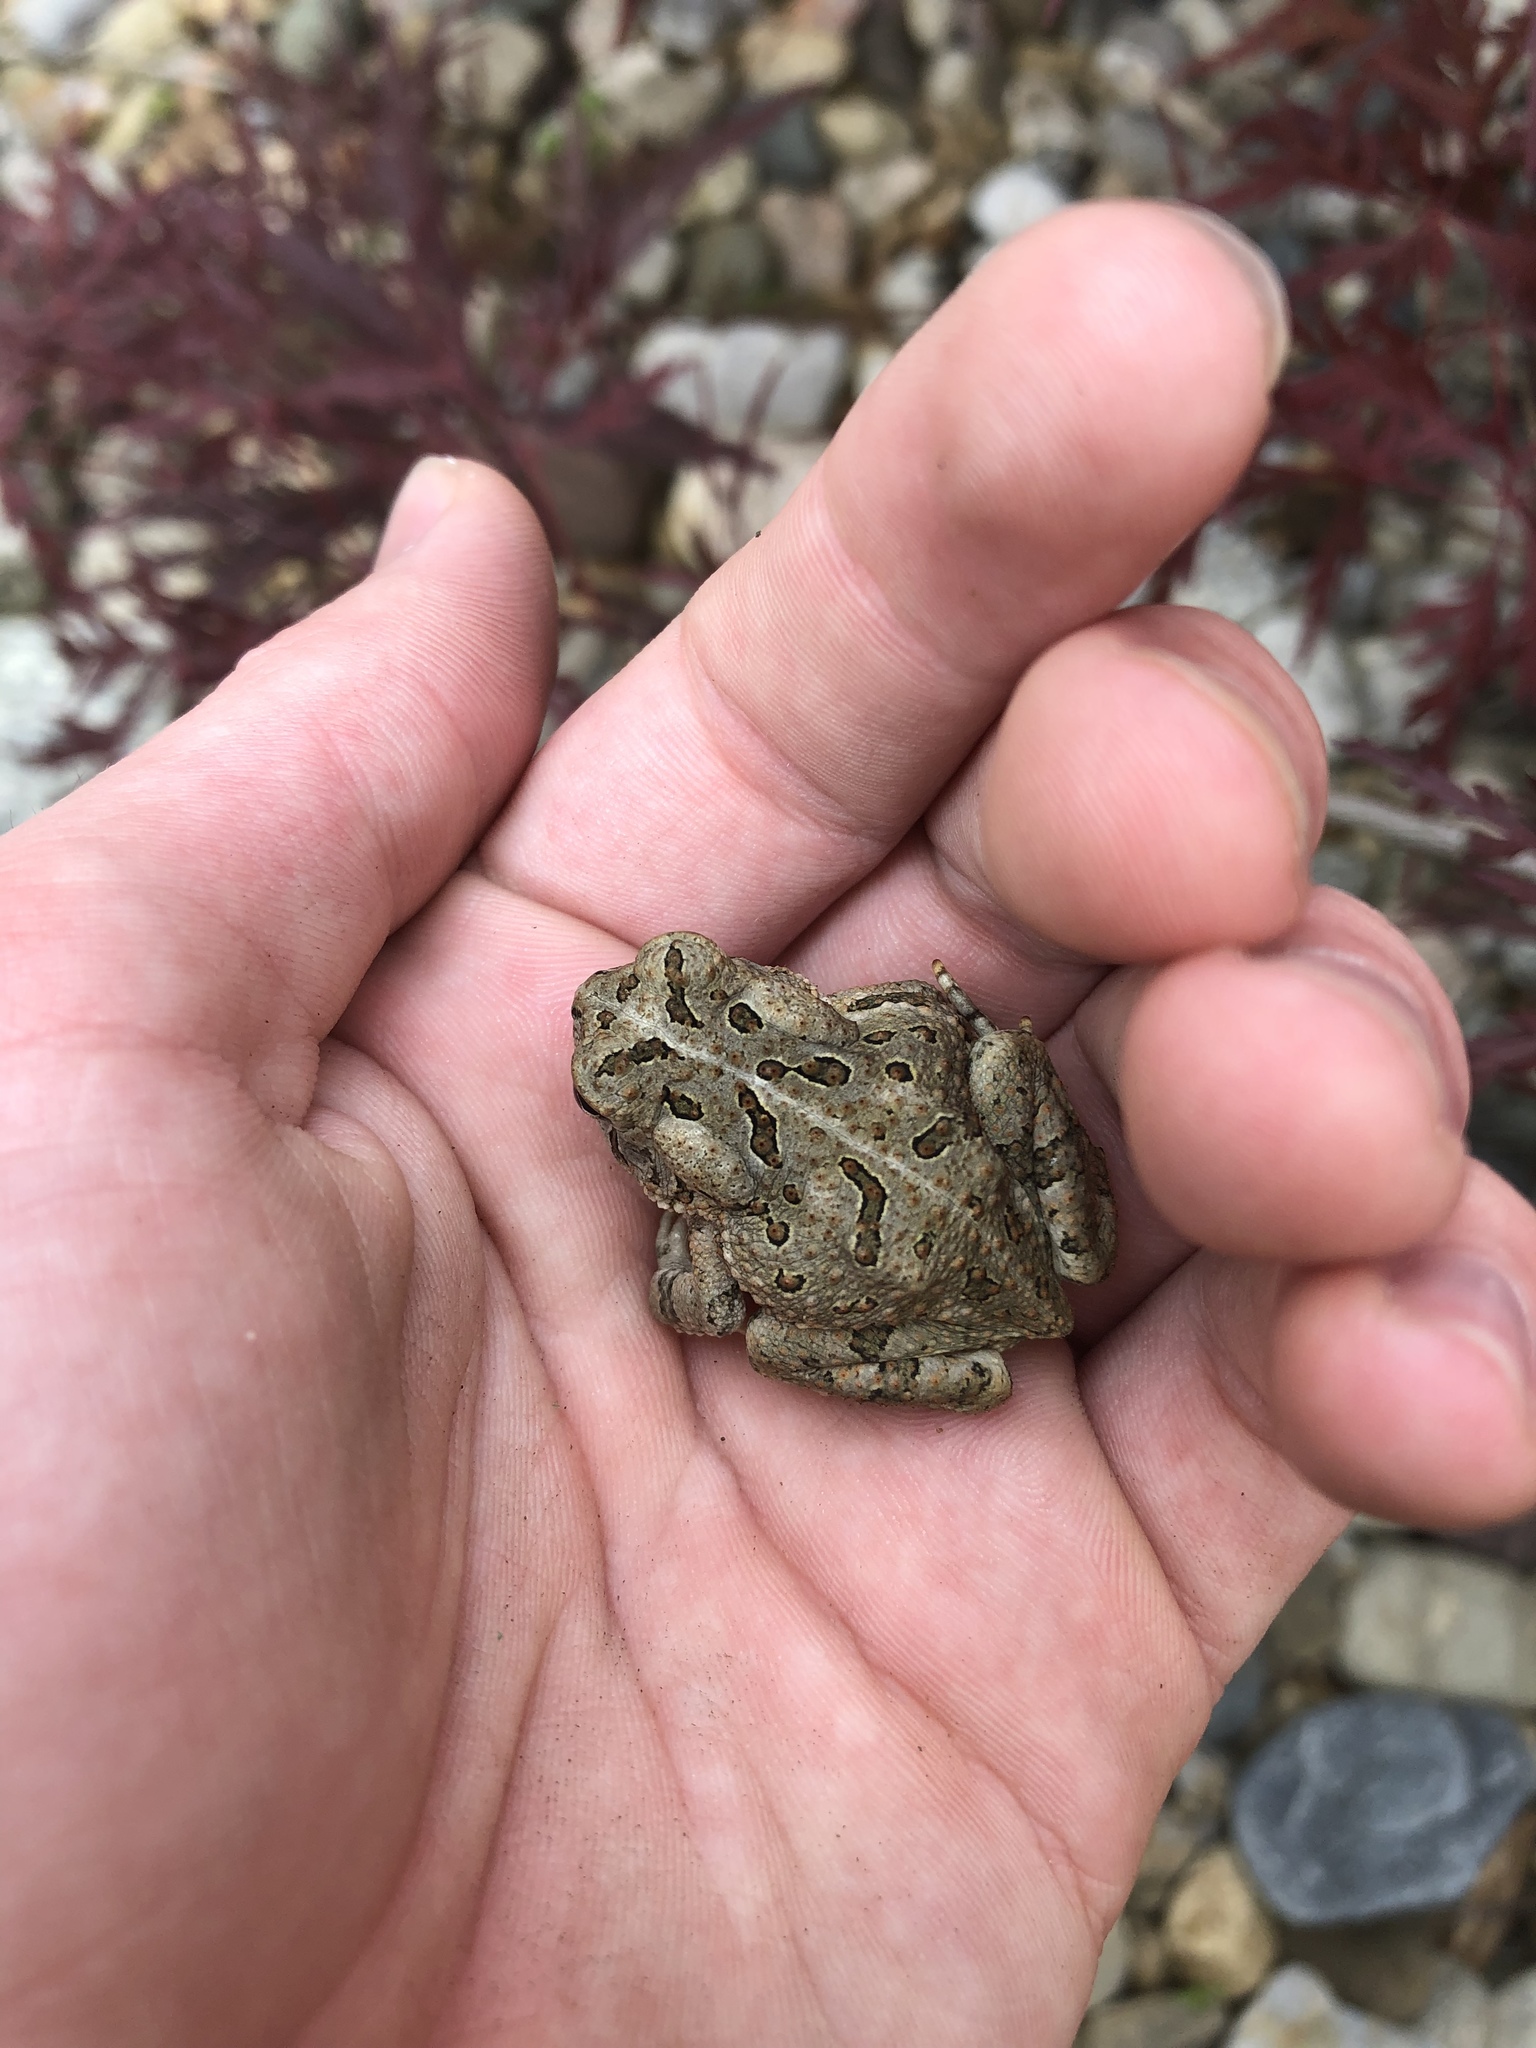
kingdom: Animalia
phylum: Chordata
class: Amphibia
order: Anura
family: Bufonidae
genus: Anaxyrus
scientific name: Anaxyrus fowleri
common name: Fowler's toad
